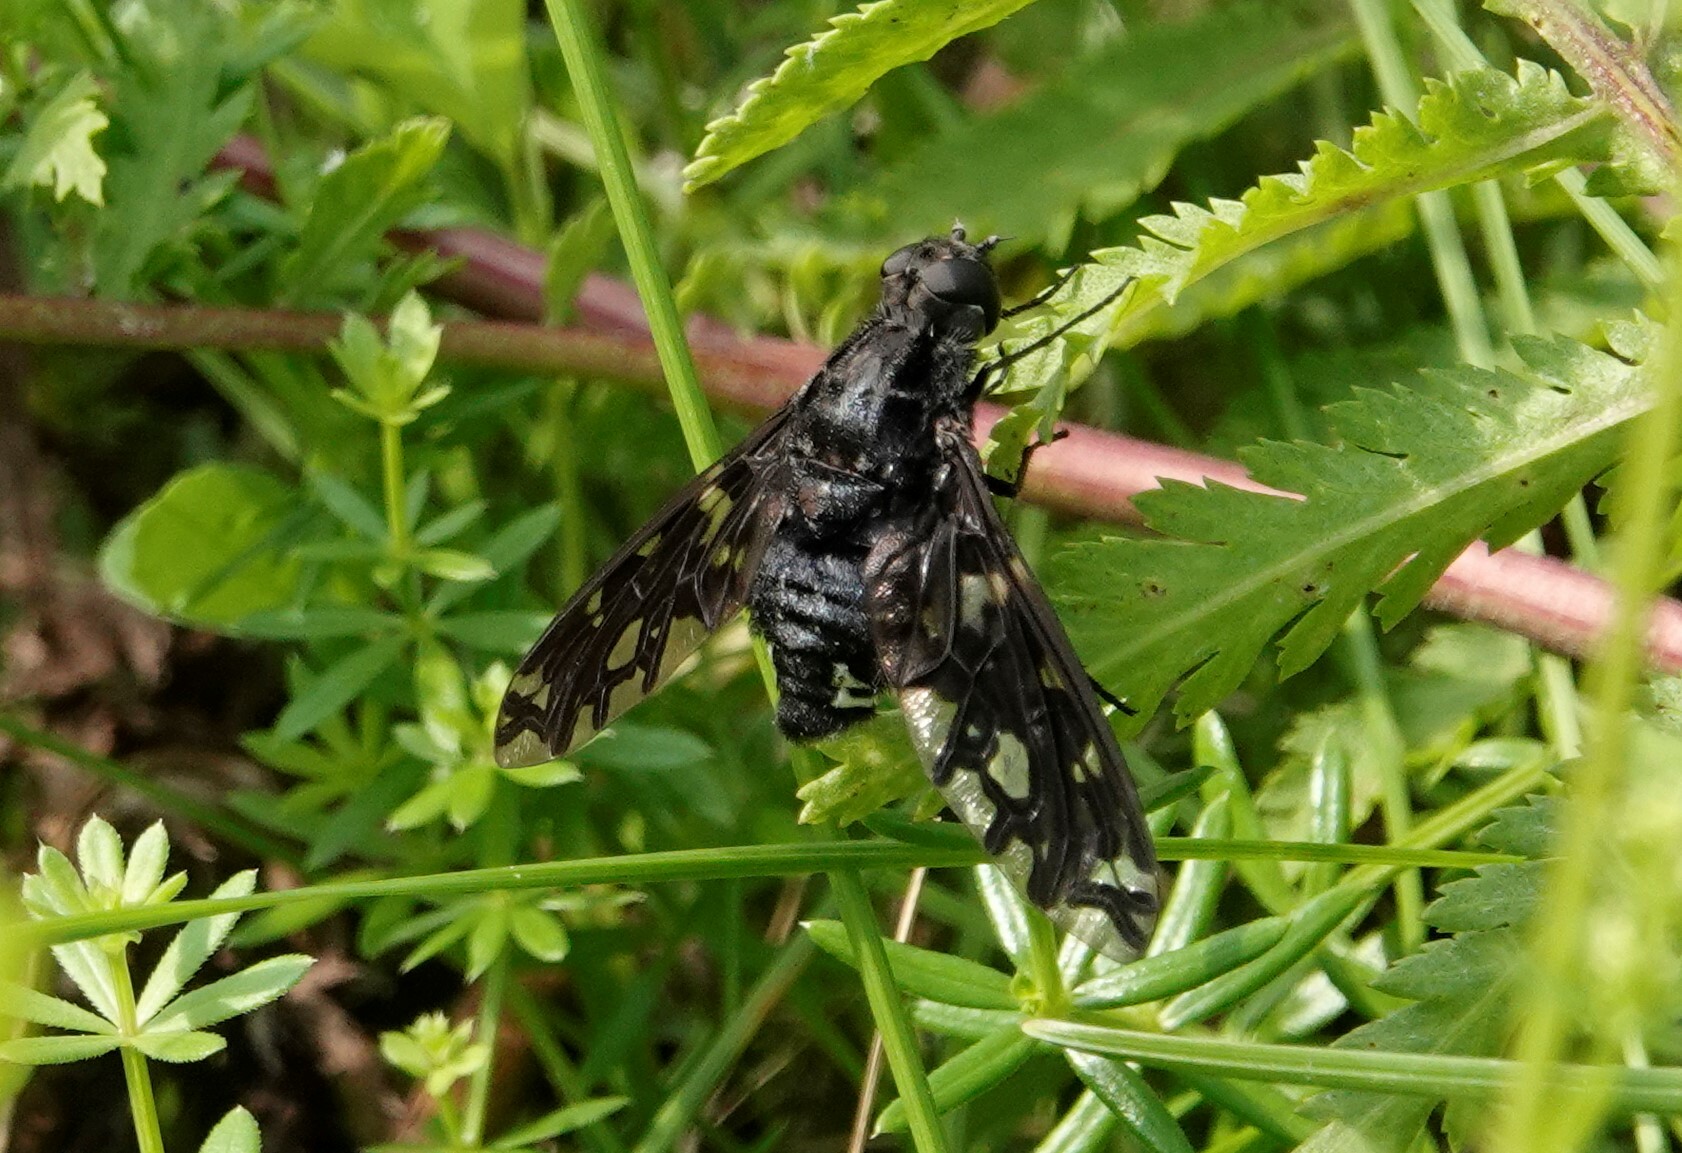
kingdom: Animalia
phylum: Arthropoda
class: Insecta
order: Diptera
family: Bombyliidae
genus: Xenox
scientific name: Xenox tigrinus
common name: Tiger bee fly
